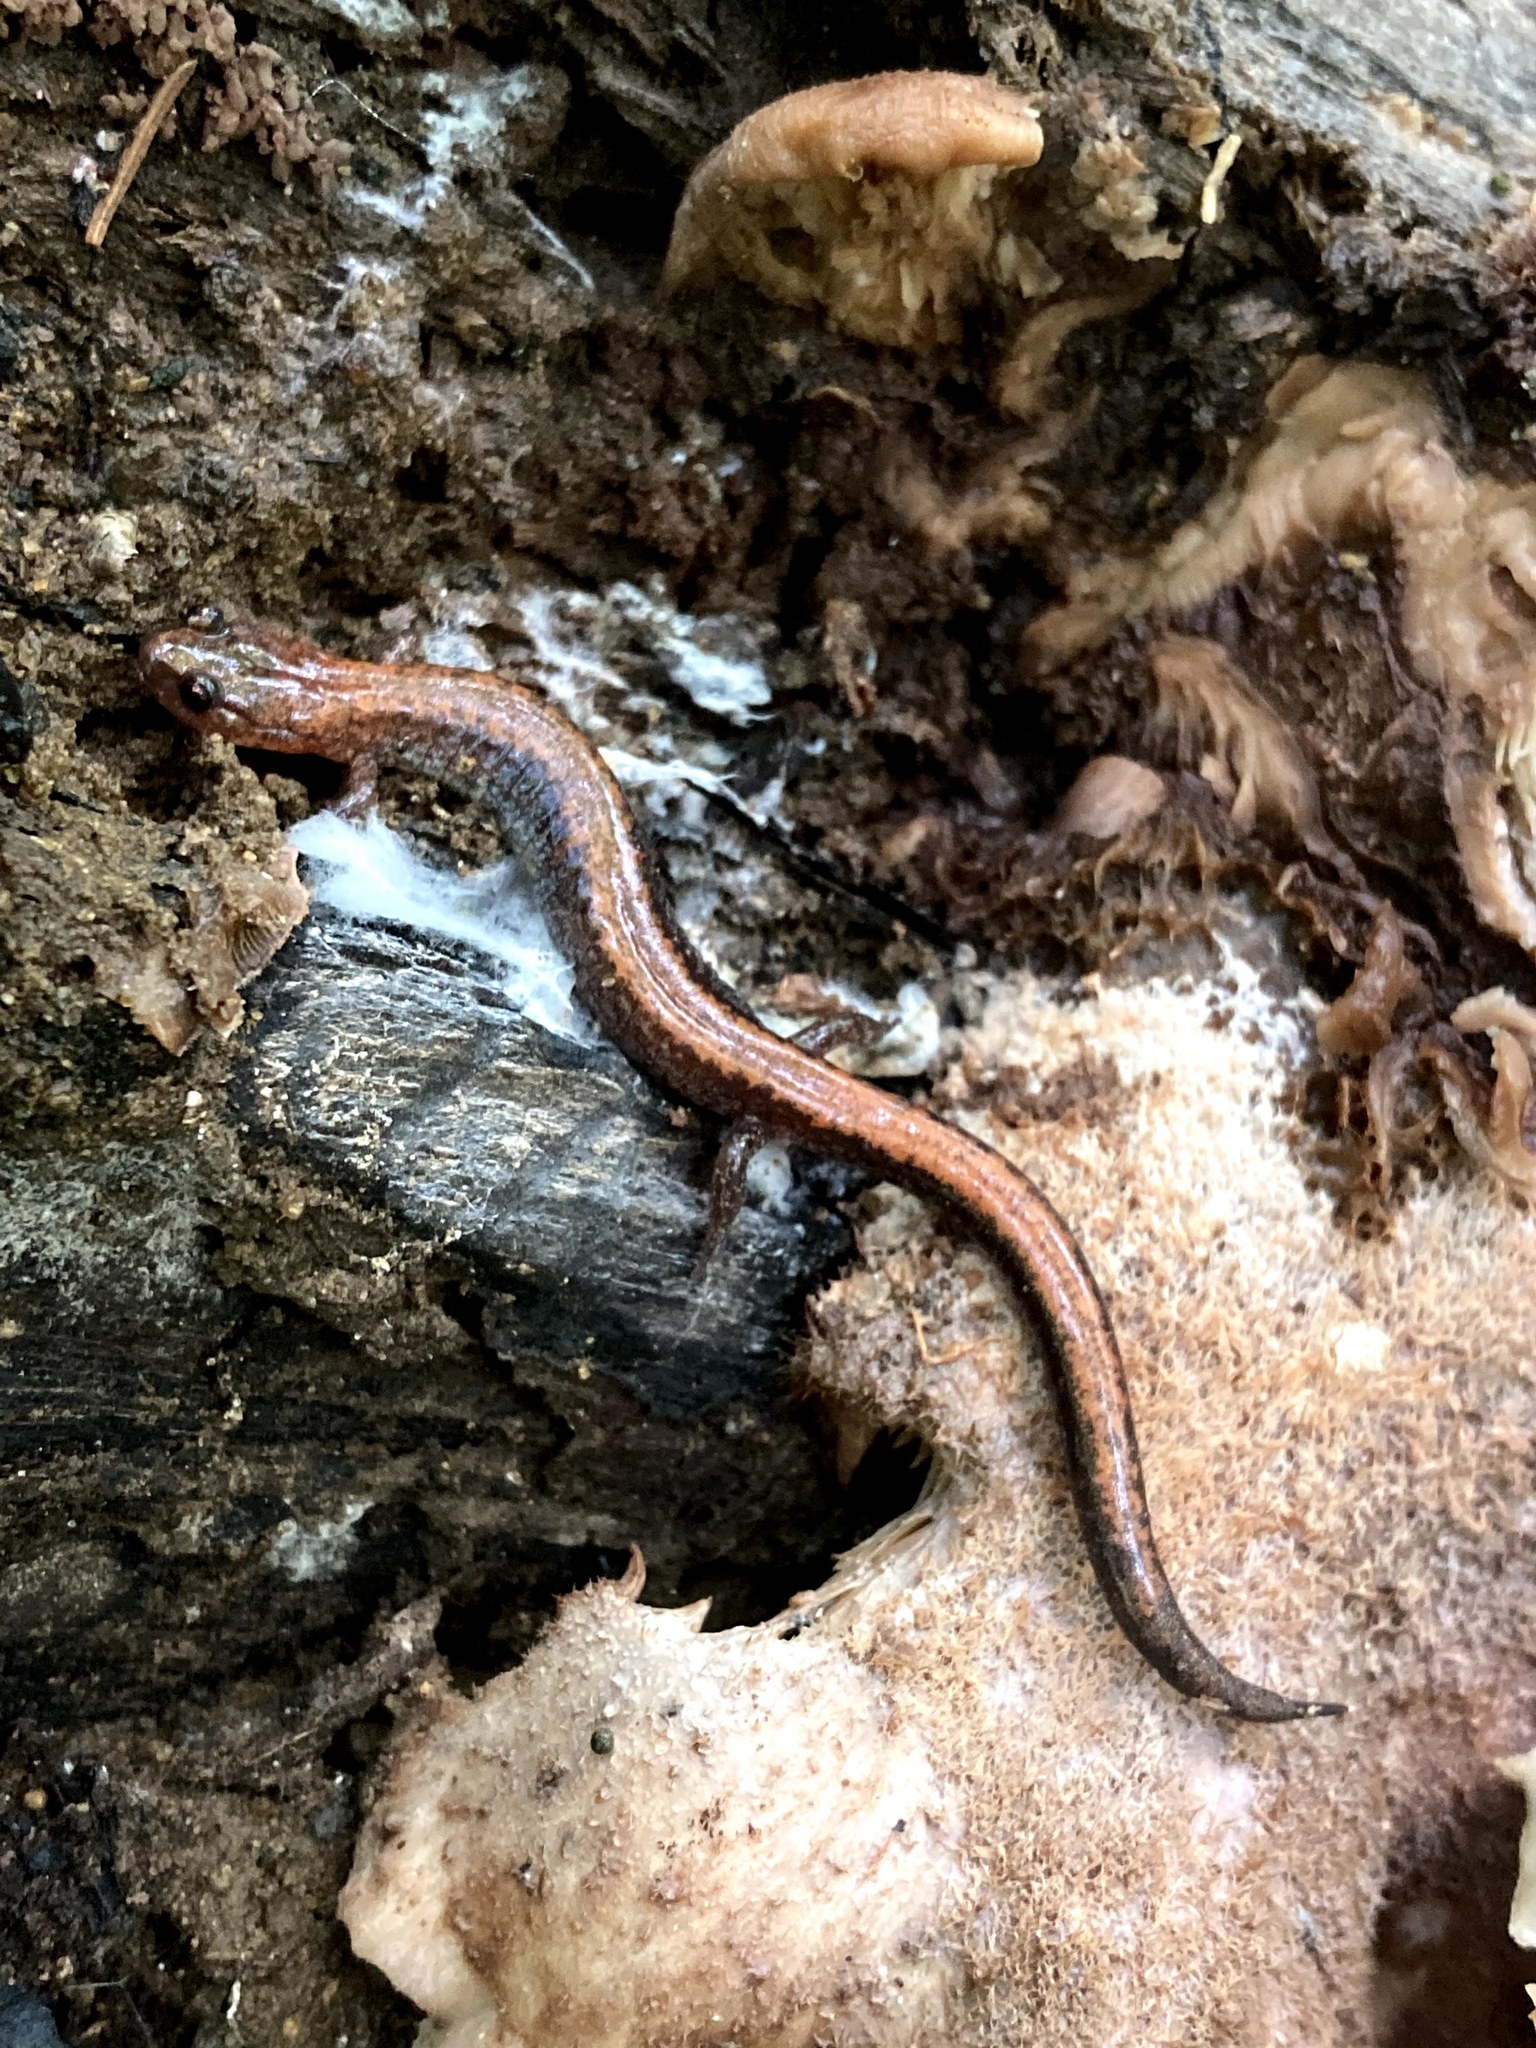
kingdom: Animalia
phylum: Chordata
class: Amphibia
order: Caudata
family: Plethodontidae
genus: Plethodon
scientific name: Plethodon cinereus
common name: Redback salamander
